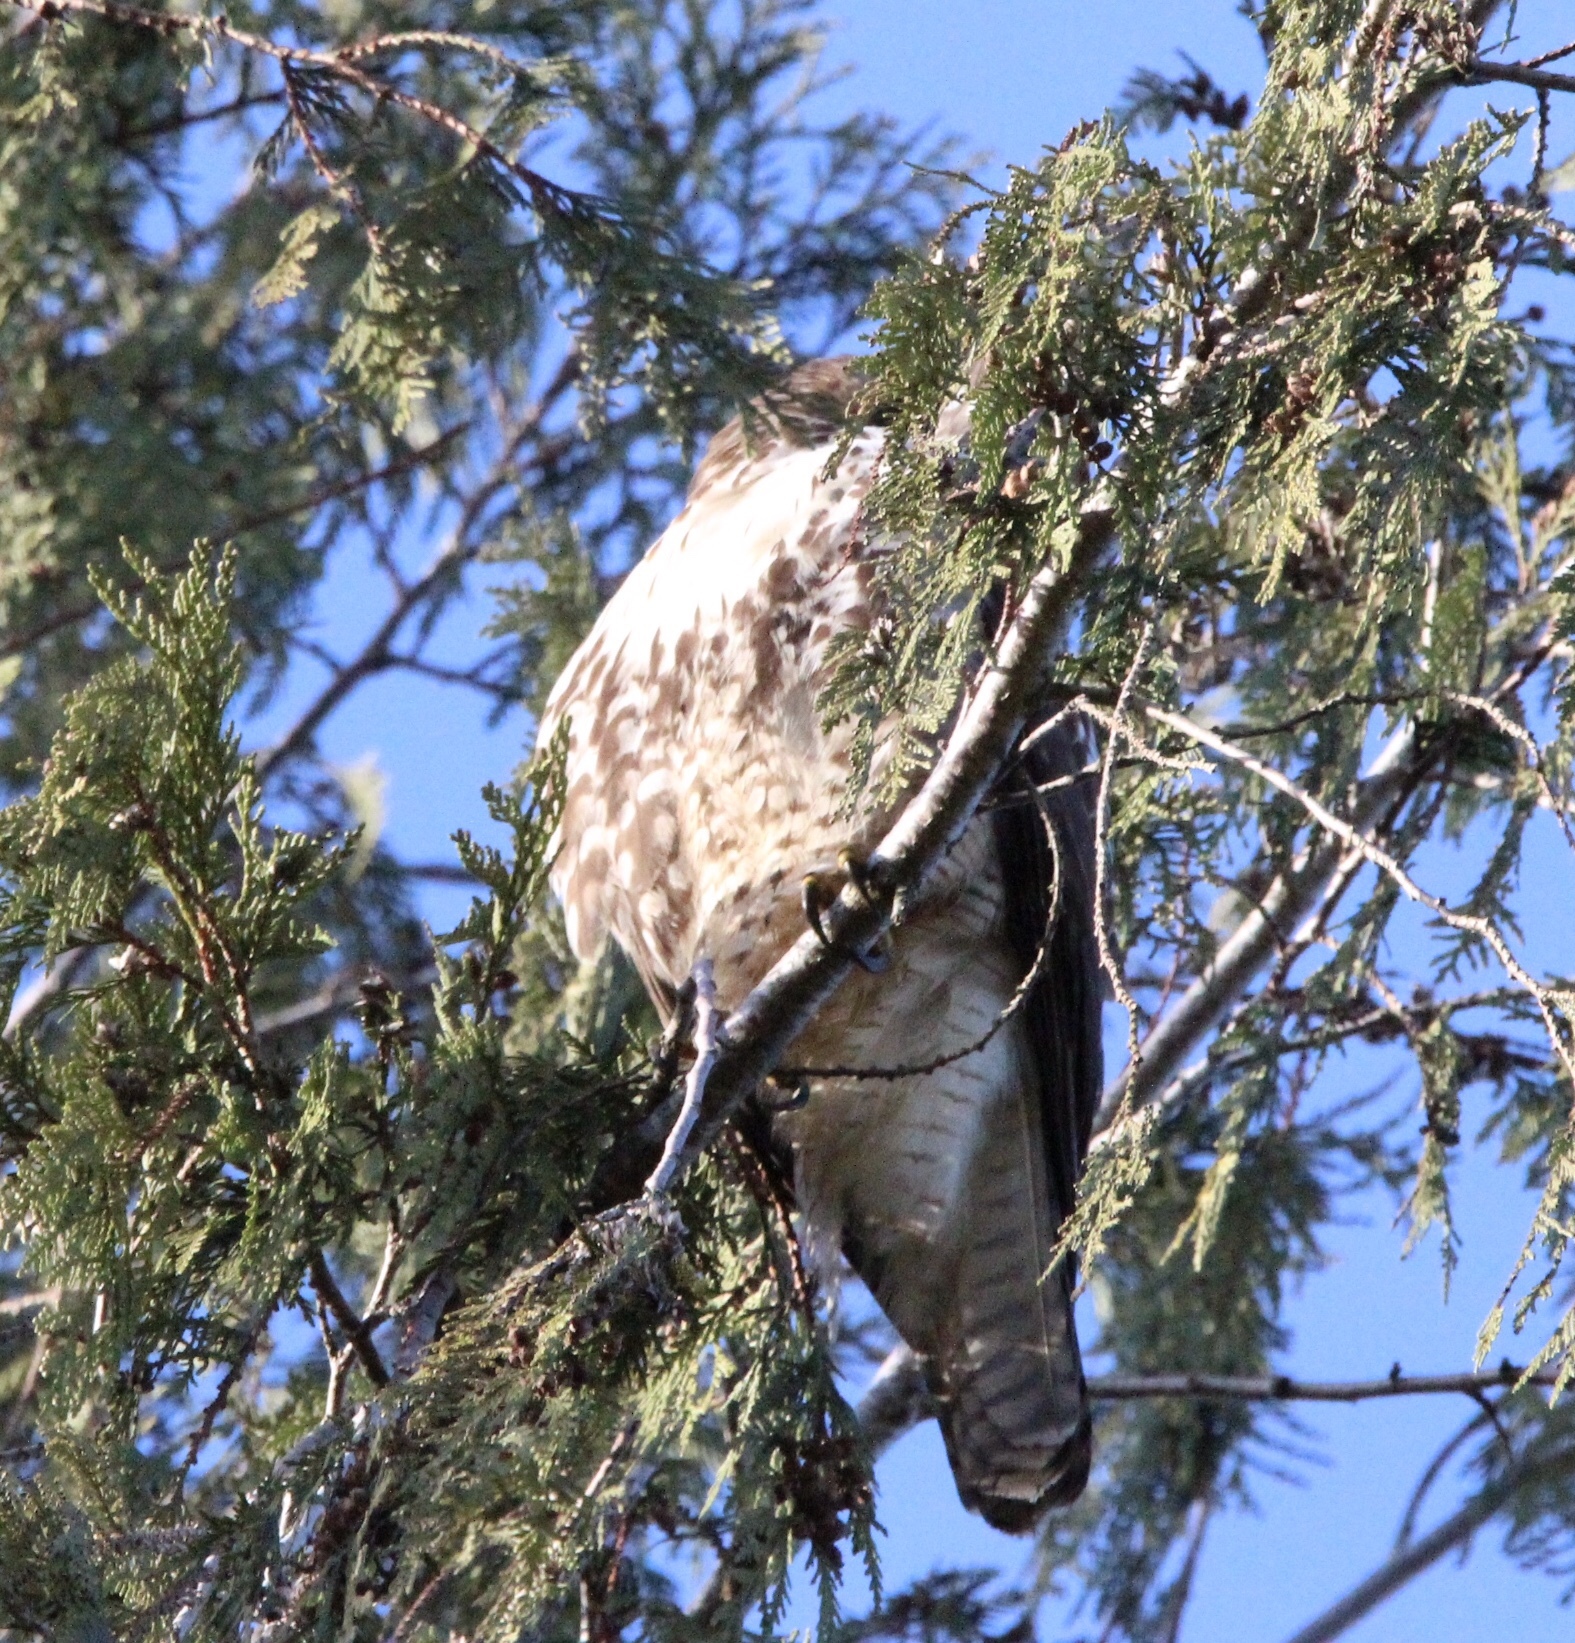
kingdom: Animalia
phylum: Chordata
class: Aves
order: Accipitriformes
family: Accipitridae
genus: Buteo
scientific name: Buteo jamaicensis
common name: Red-tailed hawk
